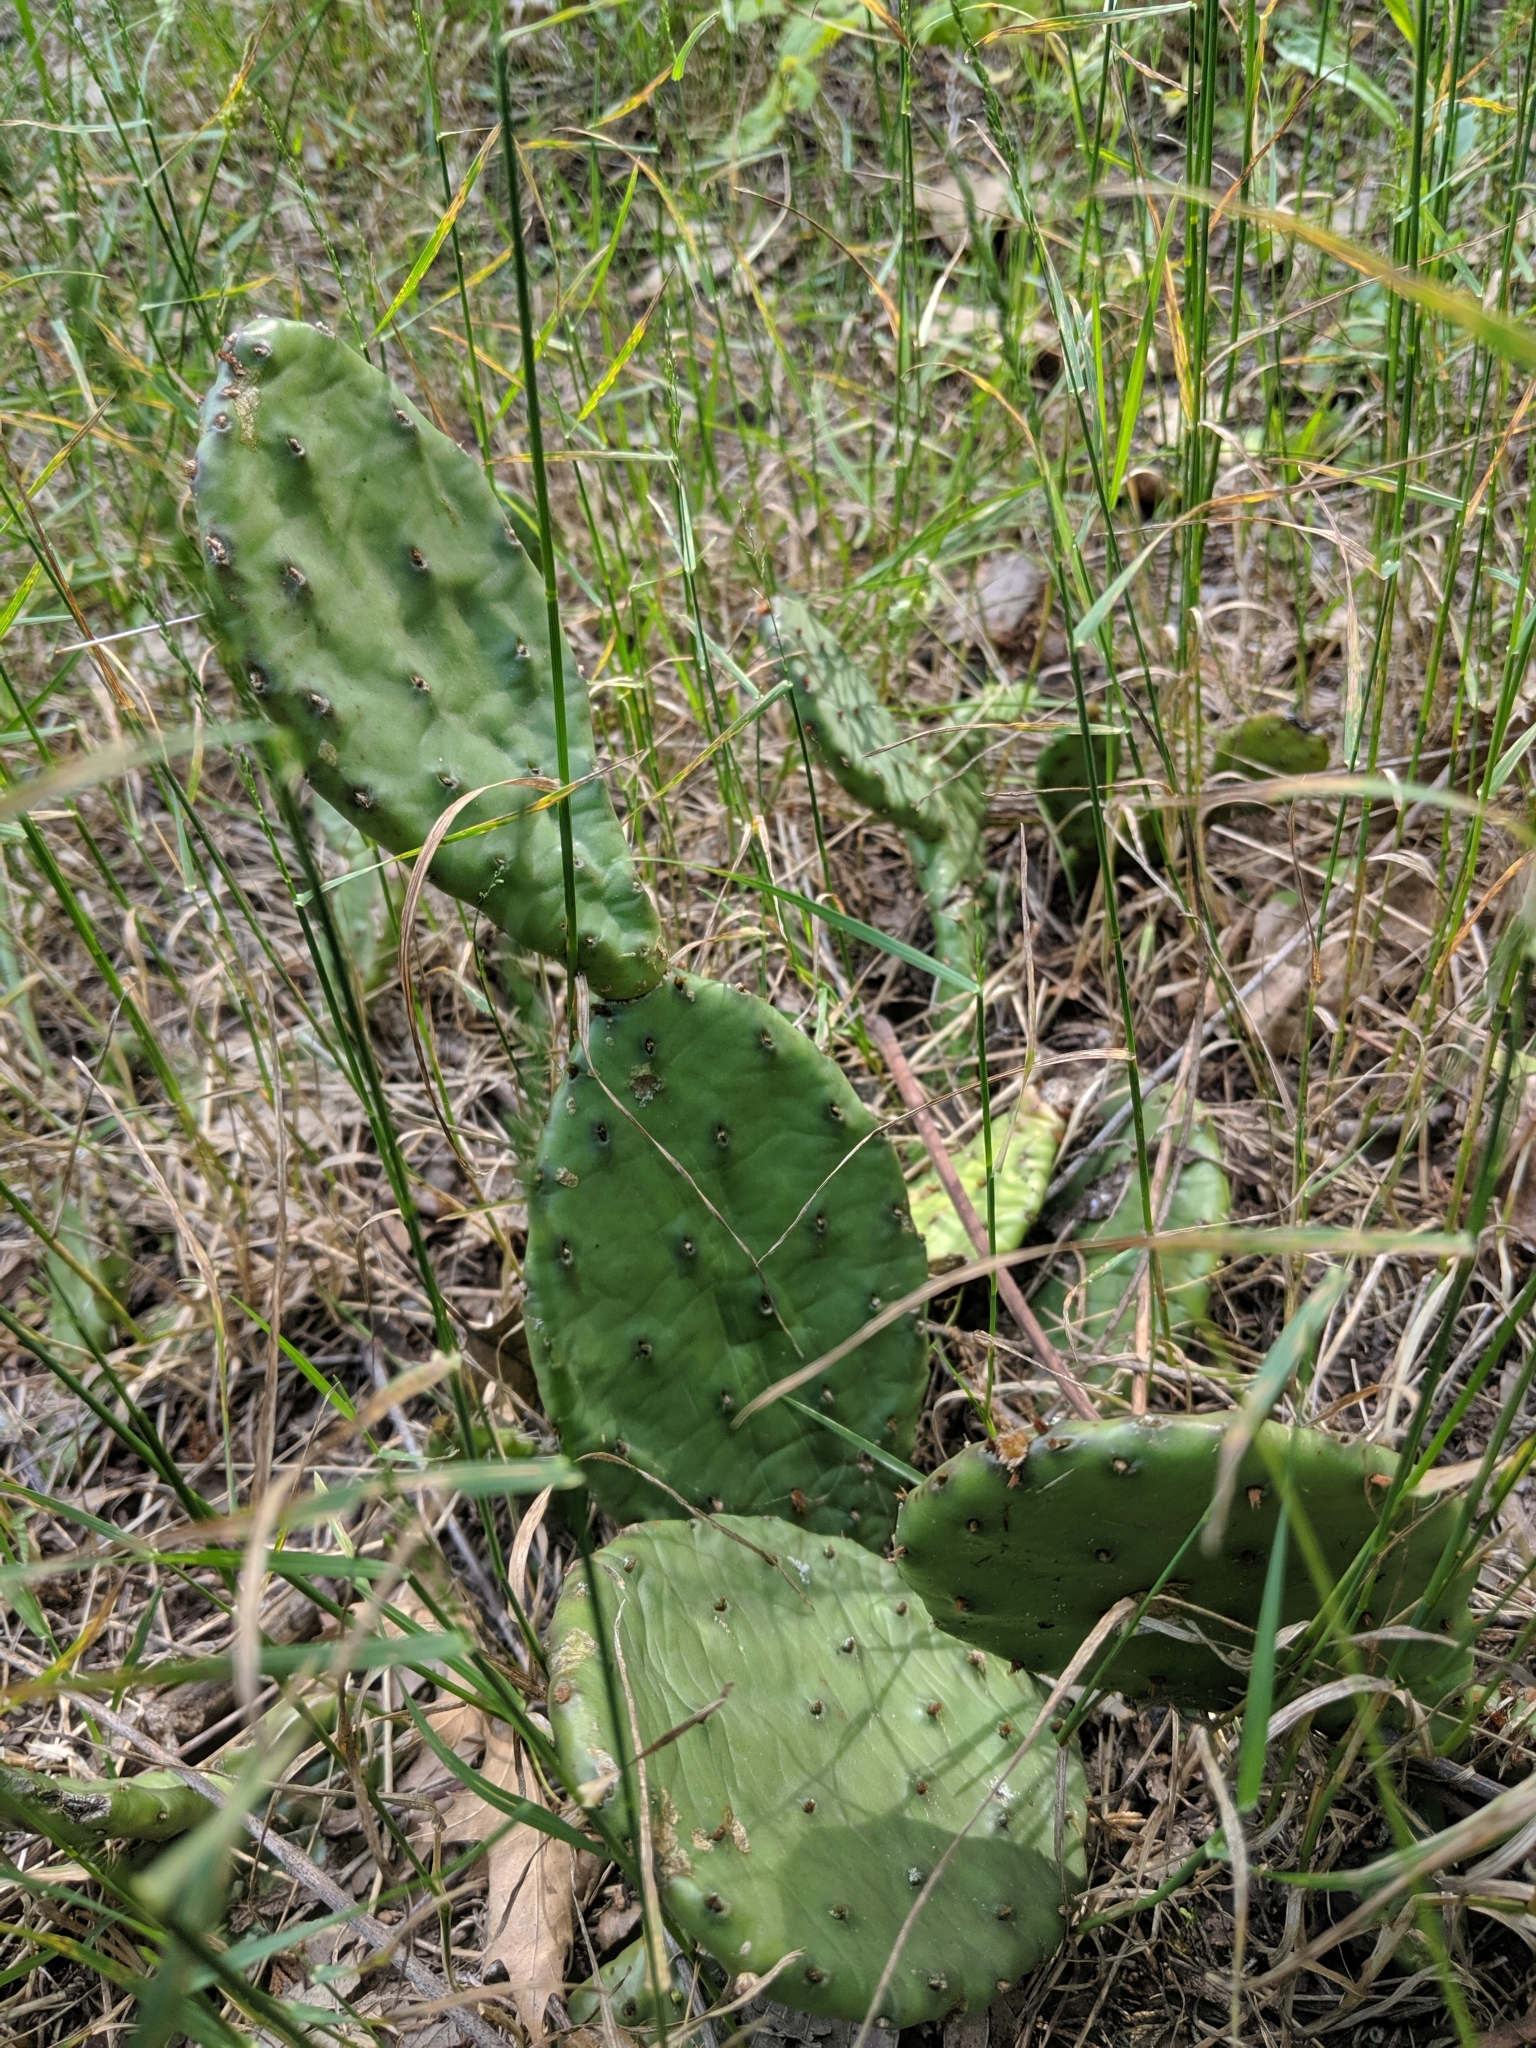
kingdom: Plantae
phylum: Tracheophyta
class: Magnoliopsida
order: Caryophyllales
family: Cactaceae
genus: Opuntia
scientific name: Opuntia humifusa
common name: Eastern prickly-pear
